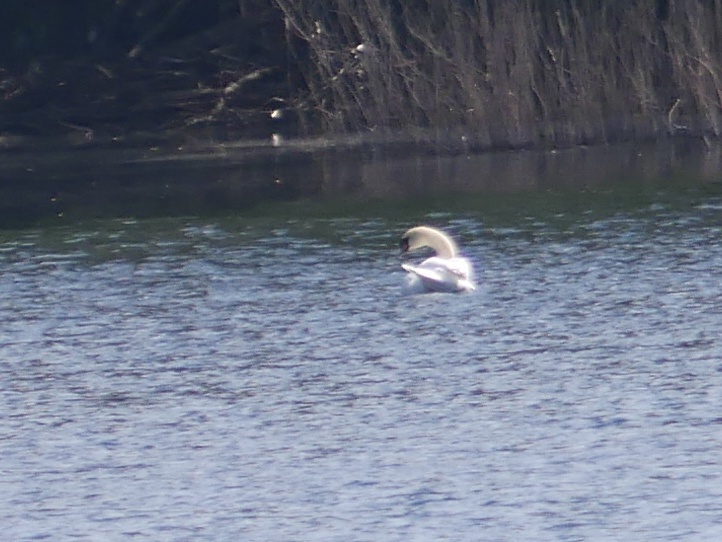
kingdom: Animalia
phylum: Chordata
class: Aves
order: Anseriformes
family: Anatidae
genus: Cygnus
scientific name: Cygnus olor
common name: Mute swan
